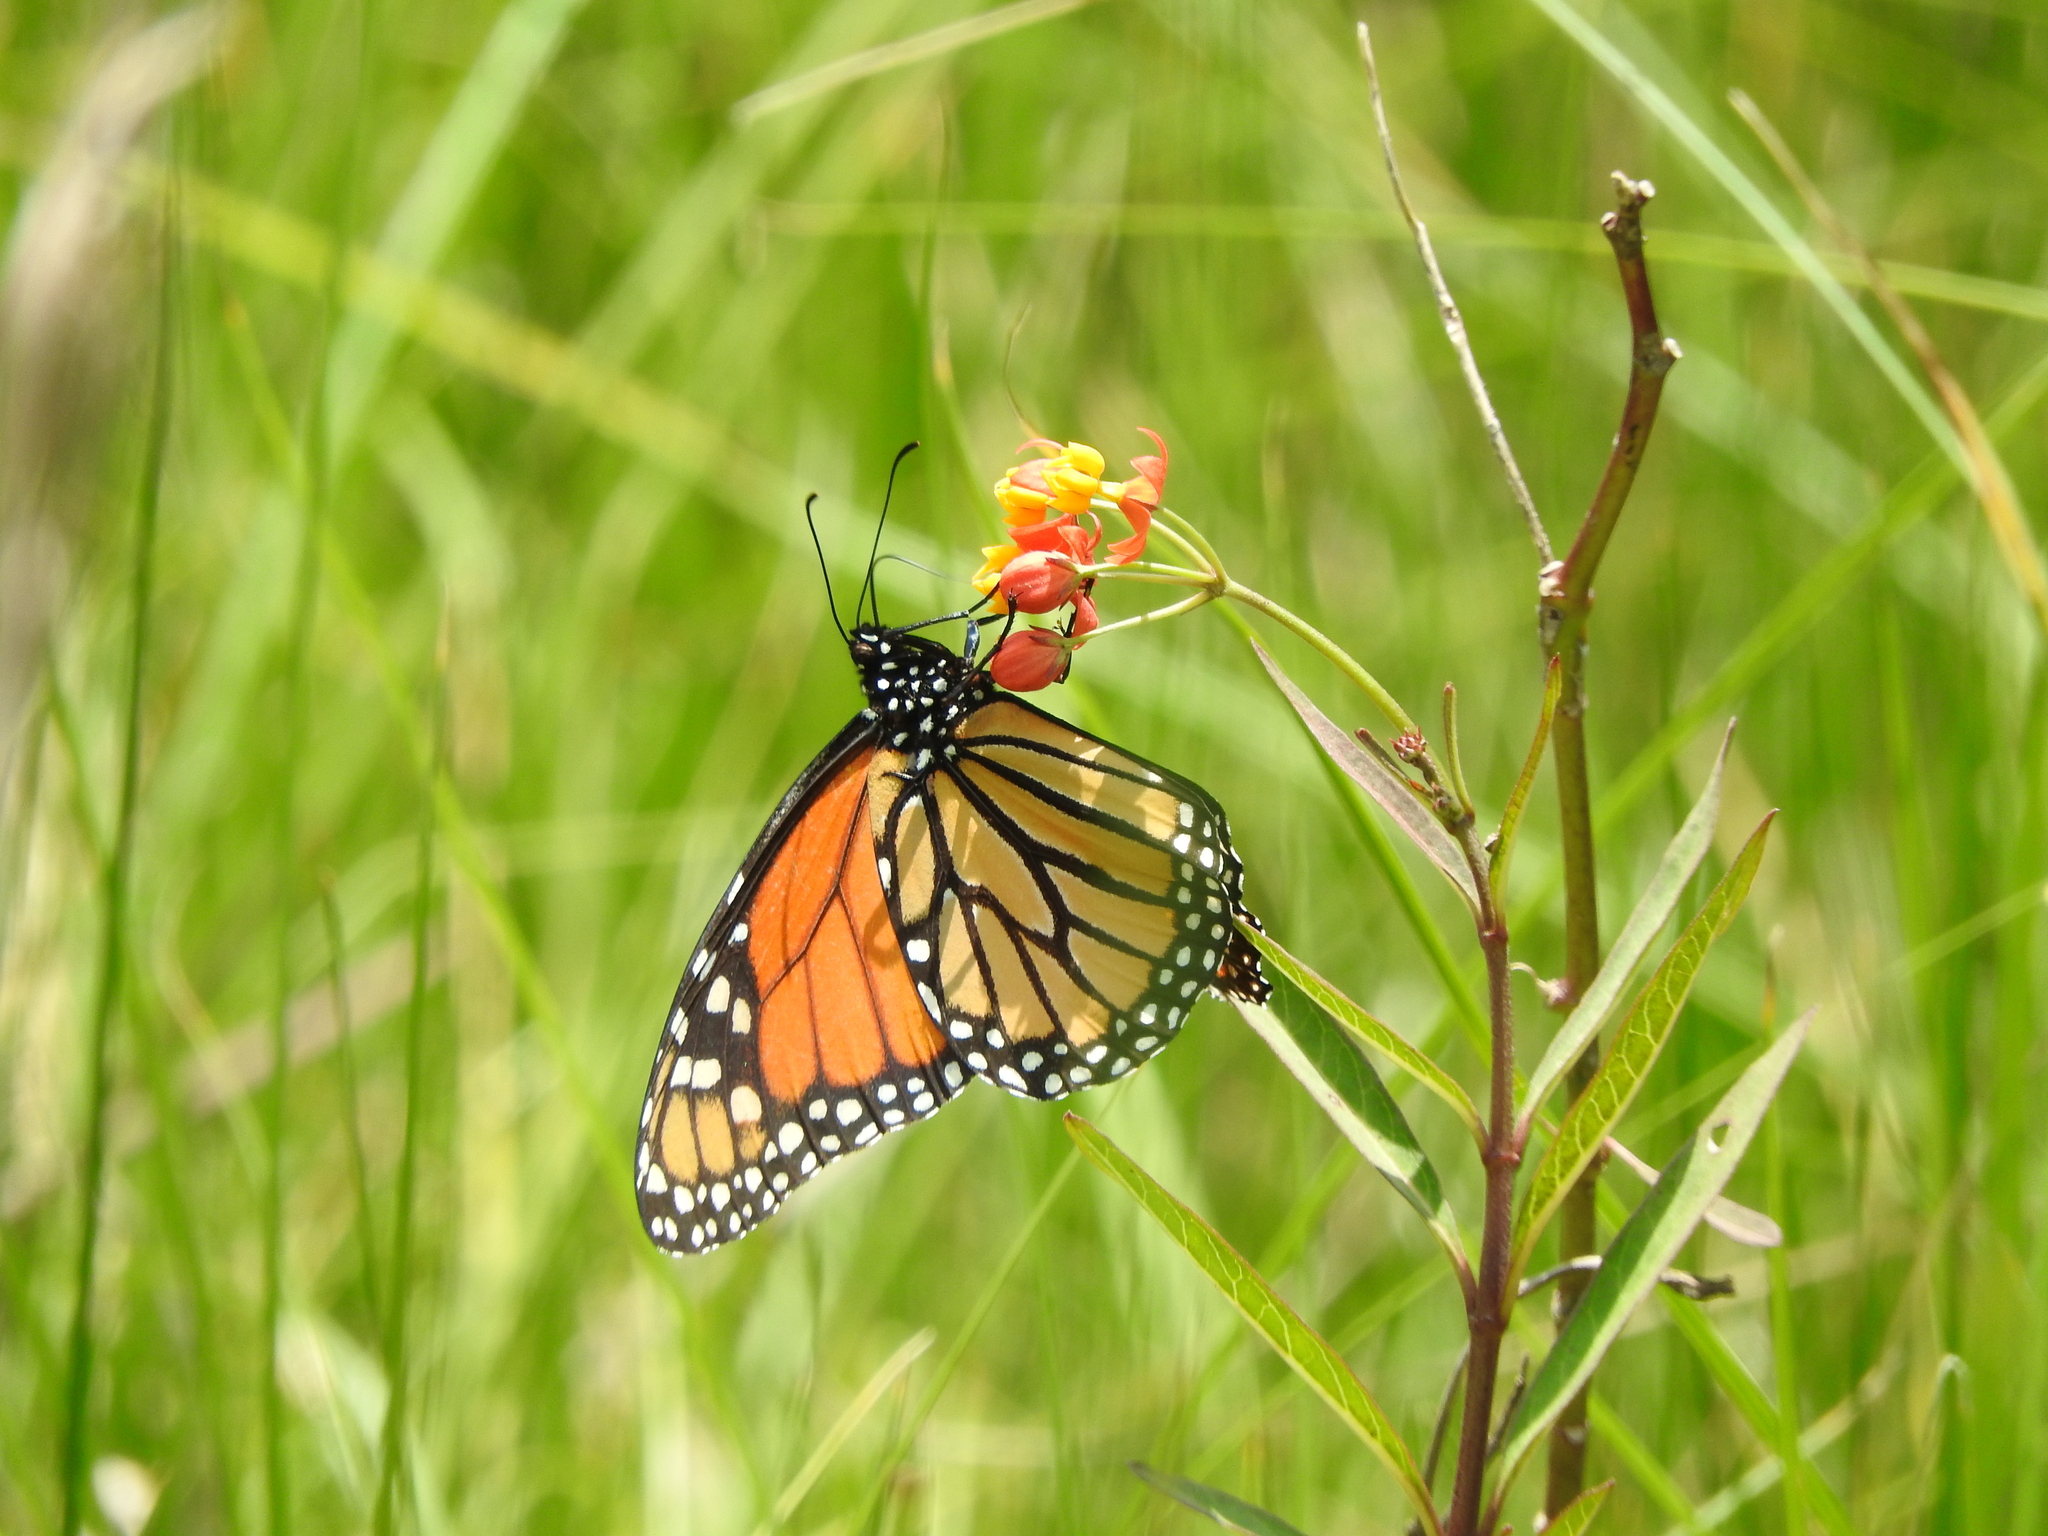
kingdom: Animalia
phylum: Arthropoda
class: Insecta
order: Lepidoptera
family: Nymphalidae
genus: Danaus
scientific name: Danaus plexippus
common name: Monarch
